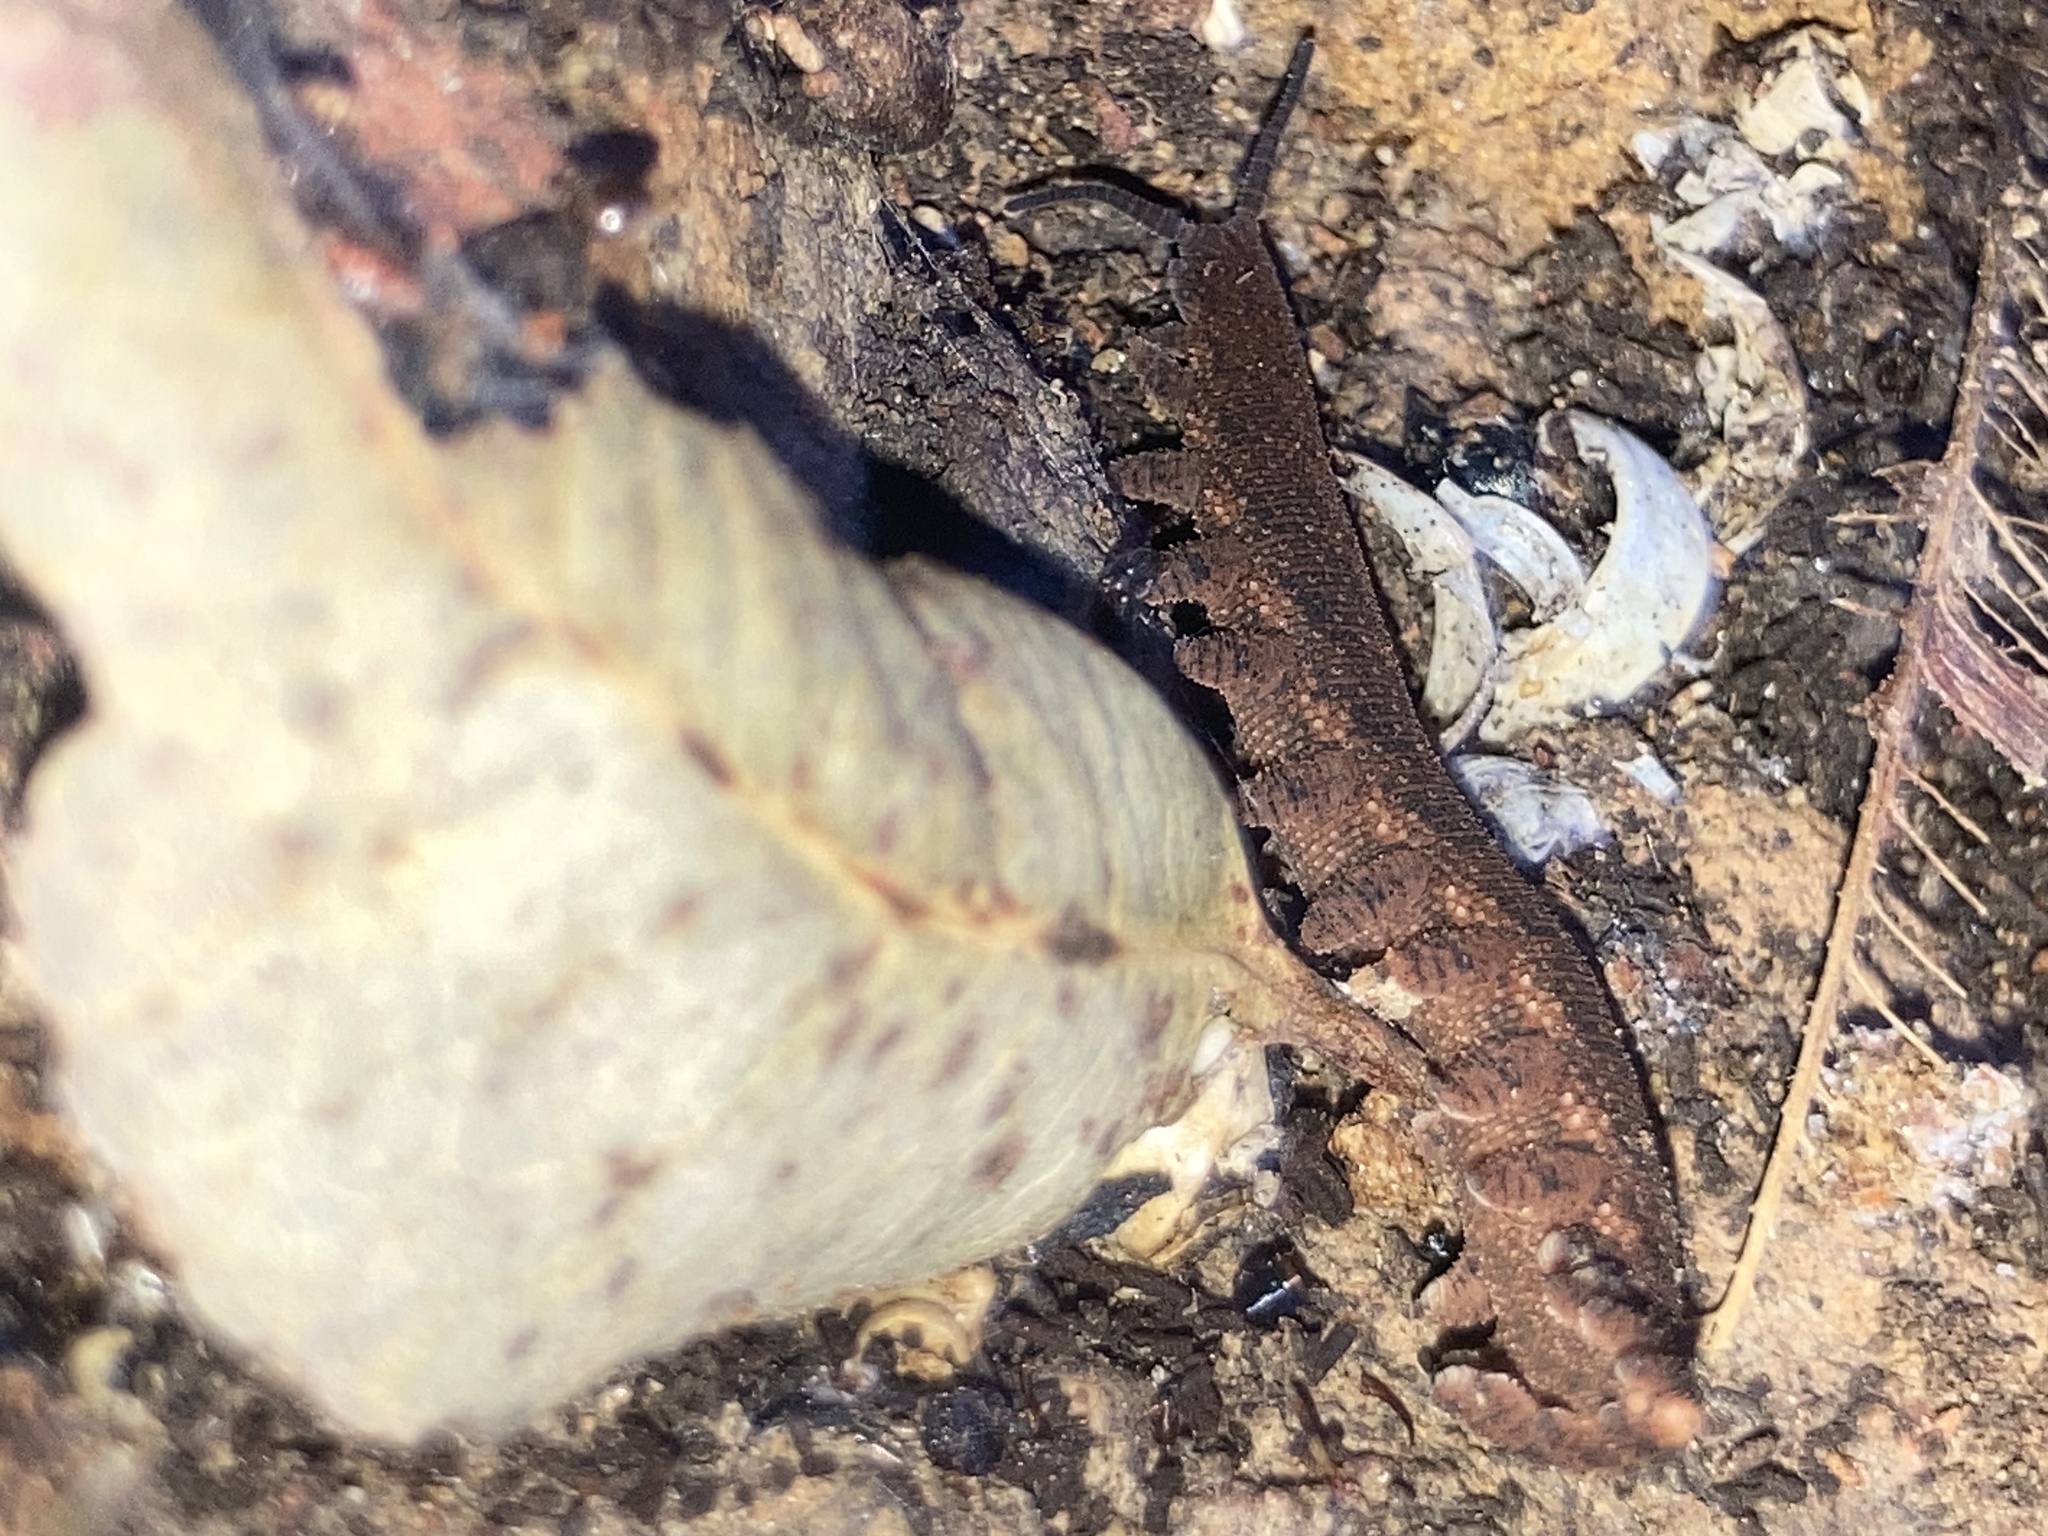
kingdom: Animalia
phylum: Onychophora
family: Peripatopsidae
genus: Anoplokaros
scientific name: Anoplokaros keerensis
